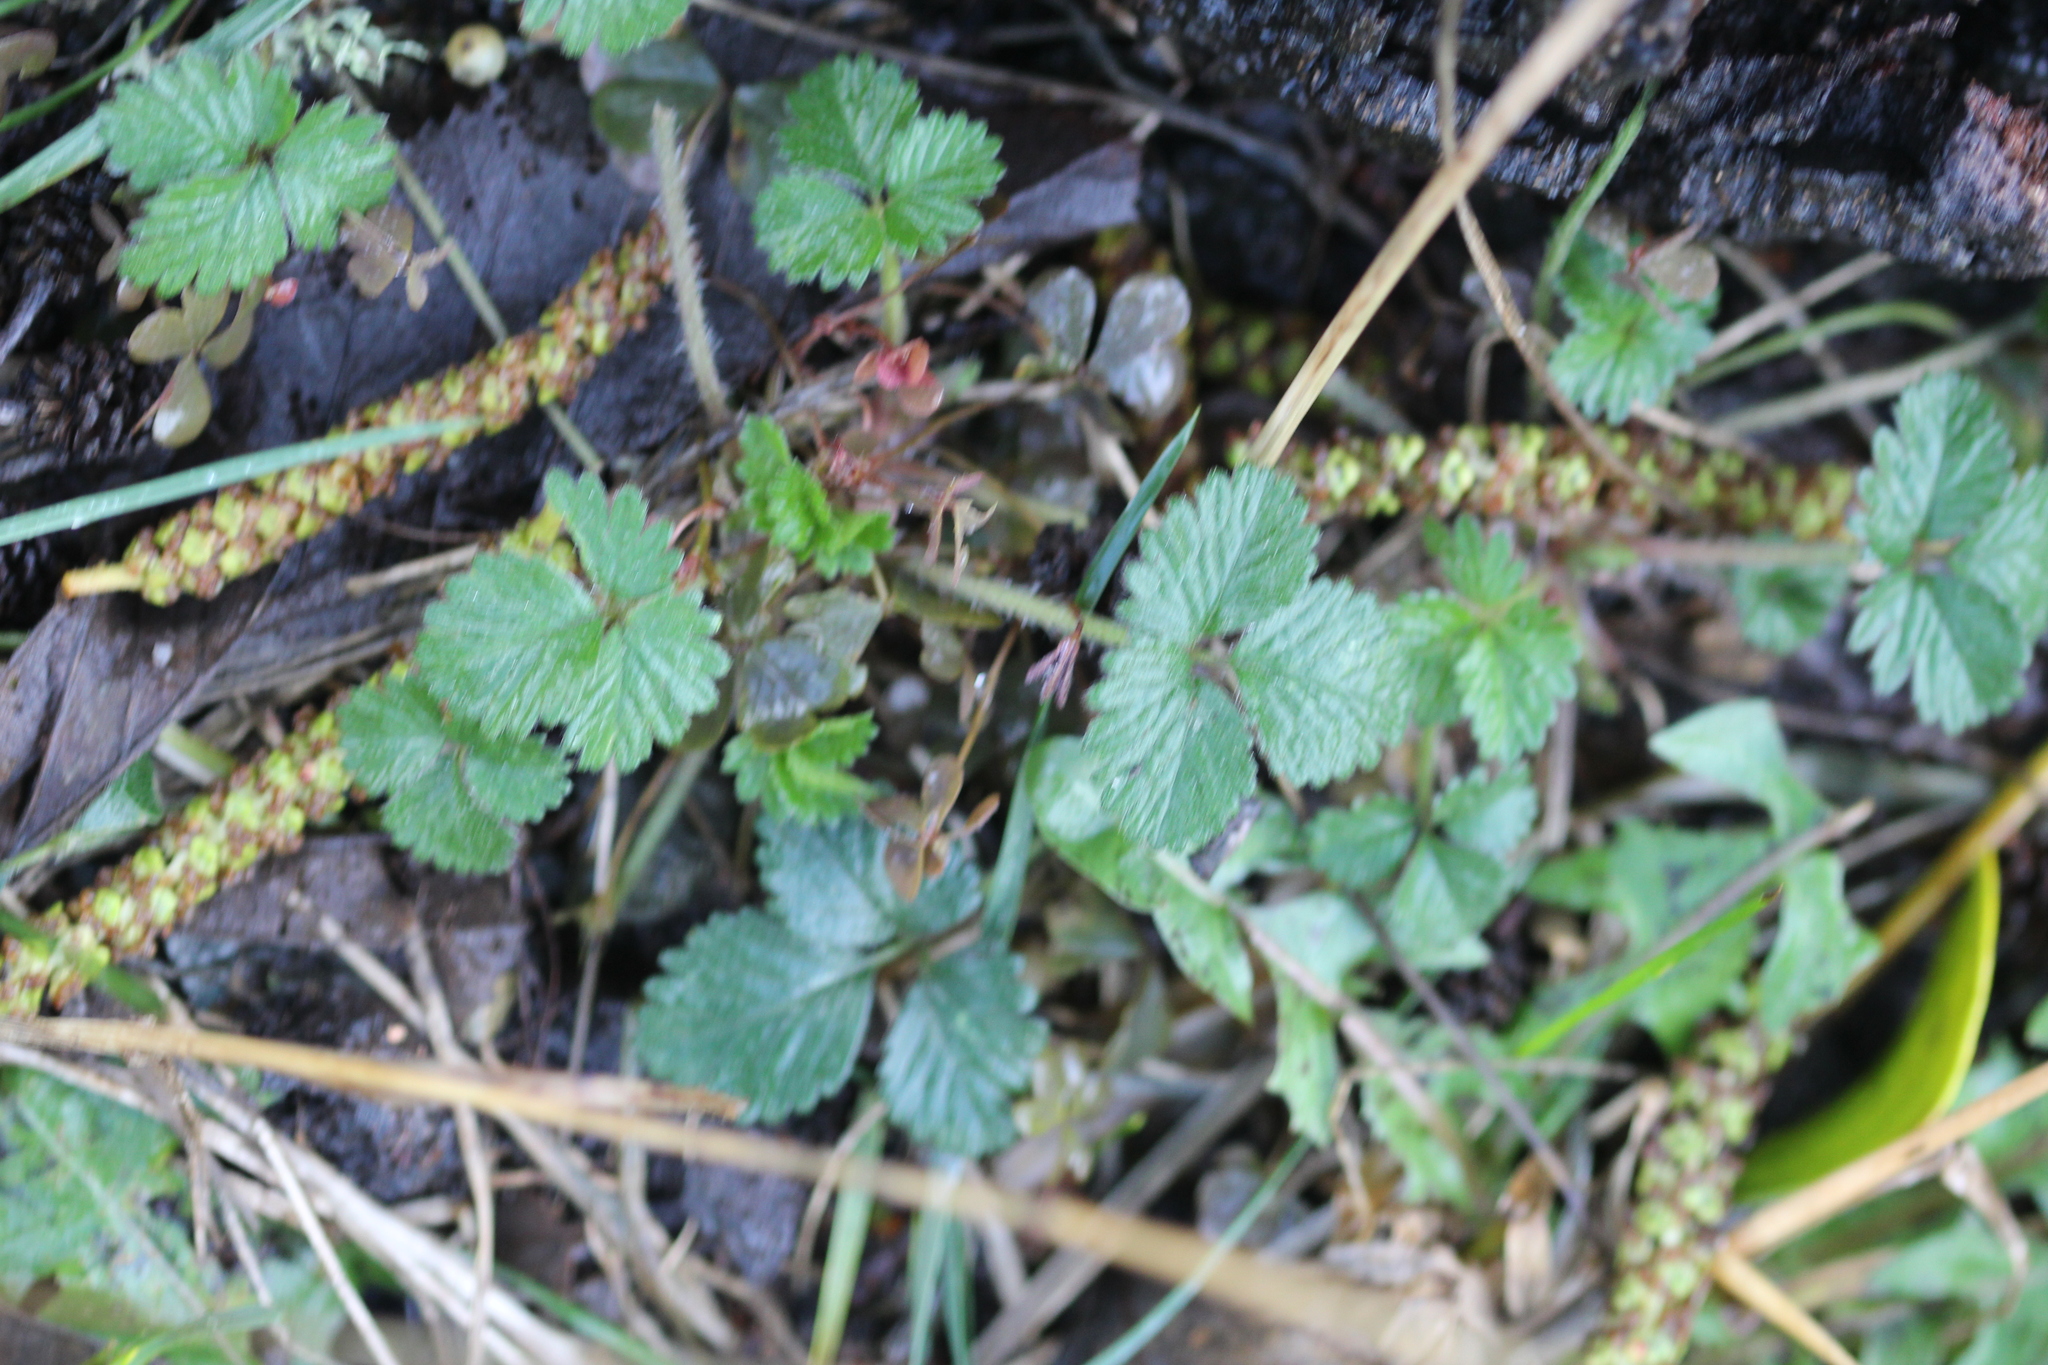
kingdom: Plantae
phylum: Tracheophyta
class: Magnoliopsida
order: Rosales
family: Rosaceae
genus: Potentilla
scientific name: Potentilla indica
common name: Yellow-flowered strawberry
